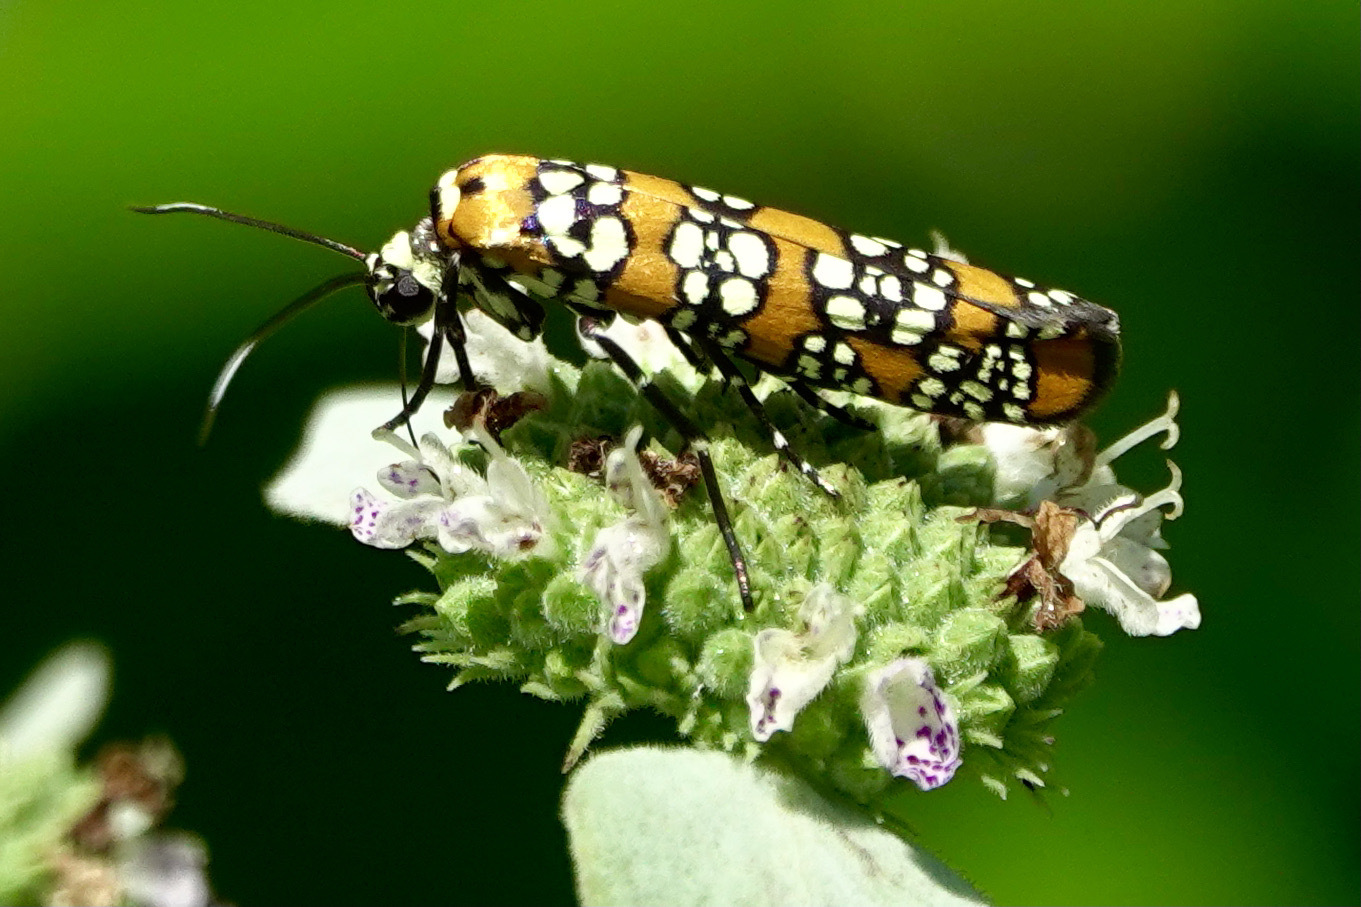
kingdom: Animalia
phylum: Arthropoda
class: Insecta
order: Lepidoptera
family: Attevidae
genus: Atteva
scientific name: Atteva punctella
